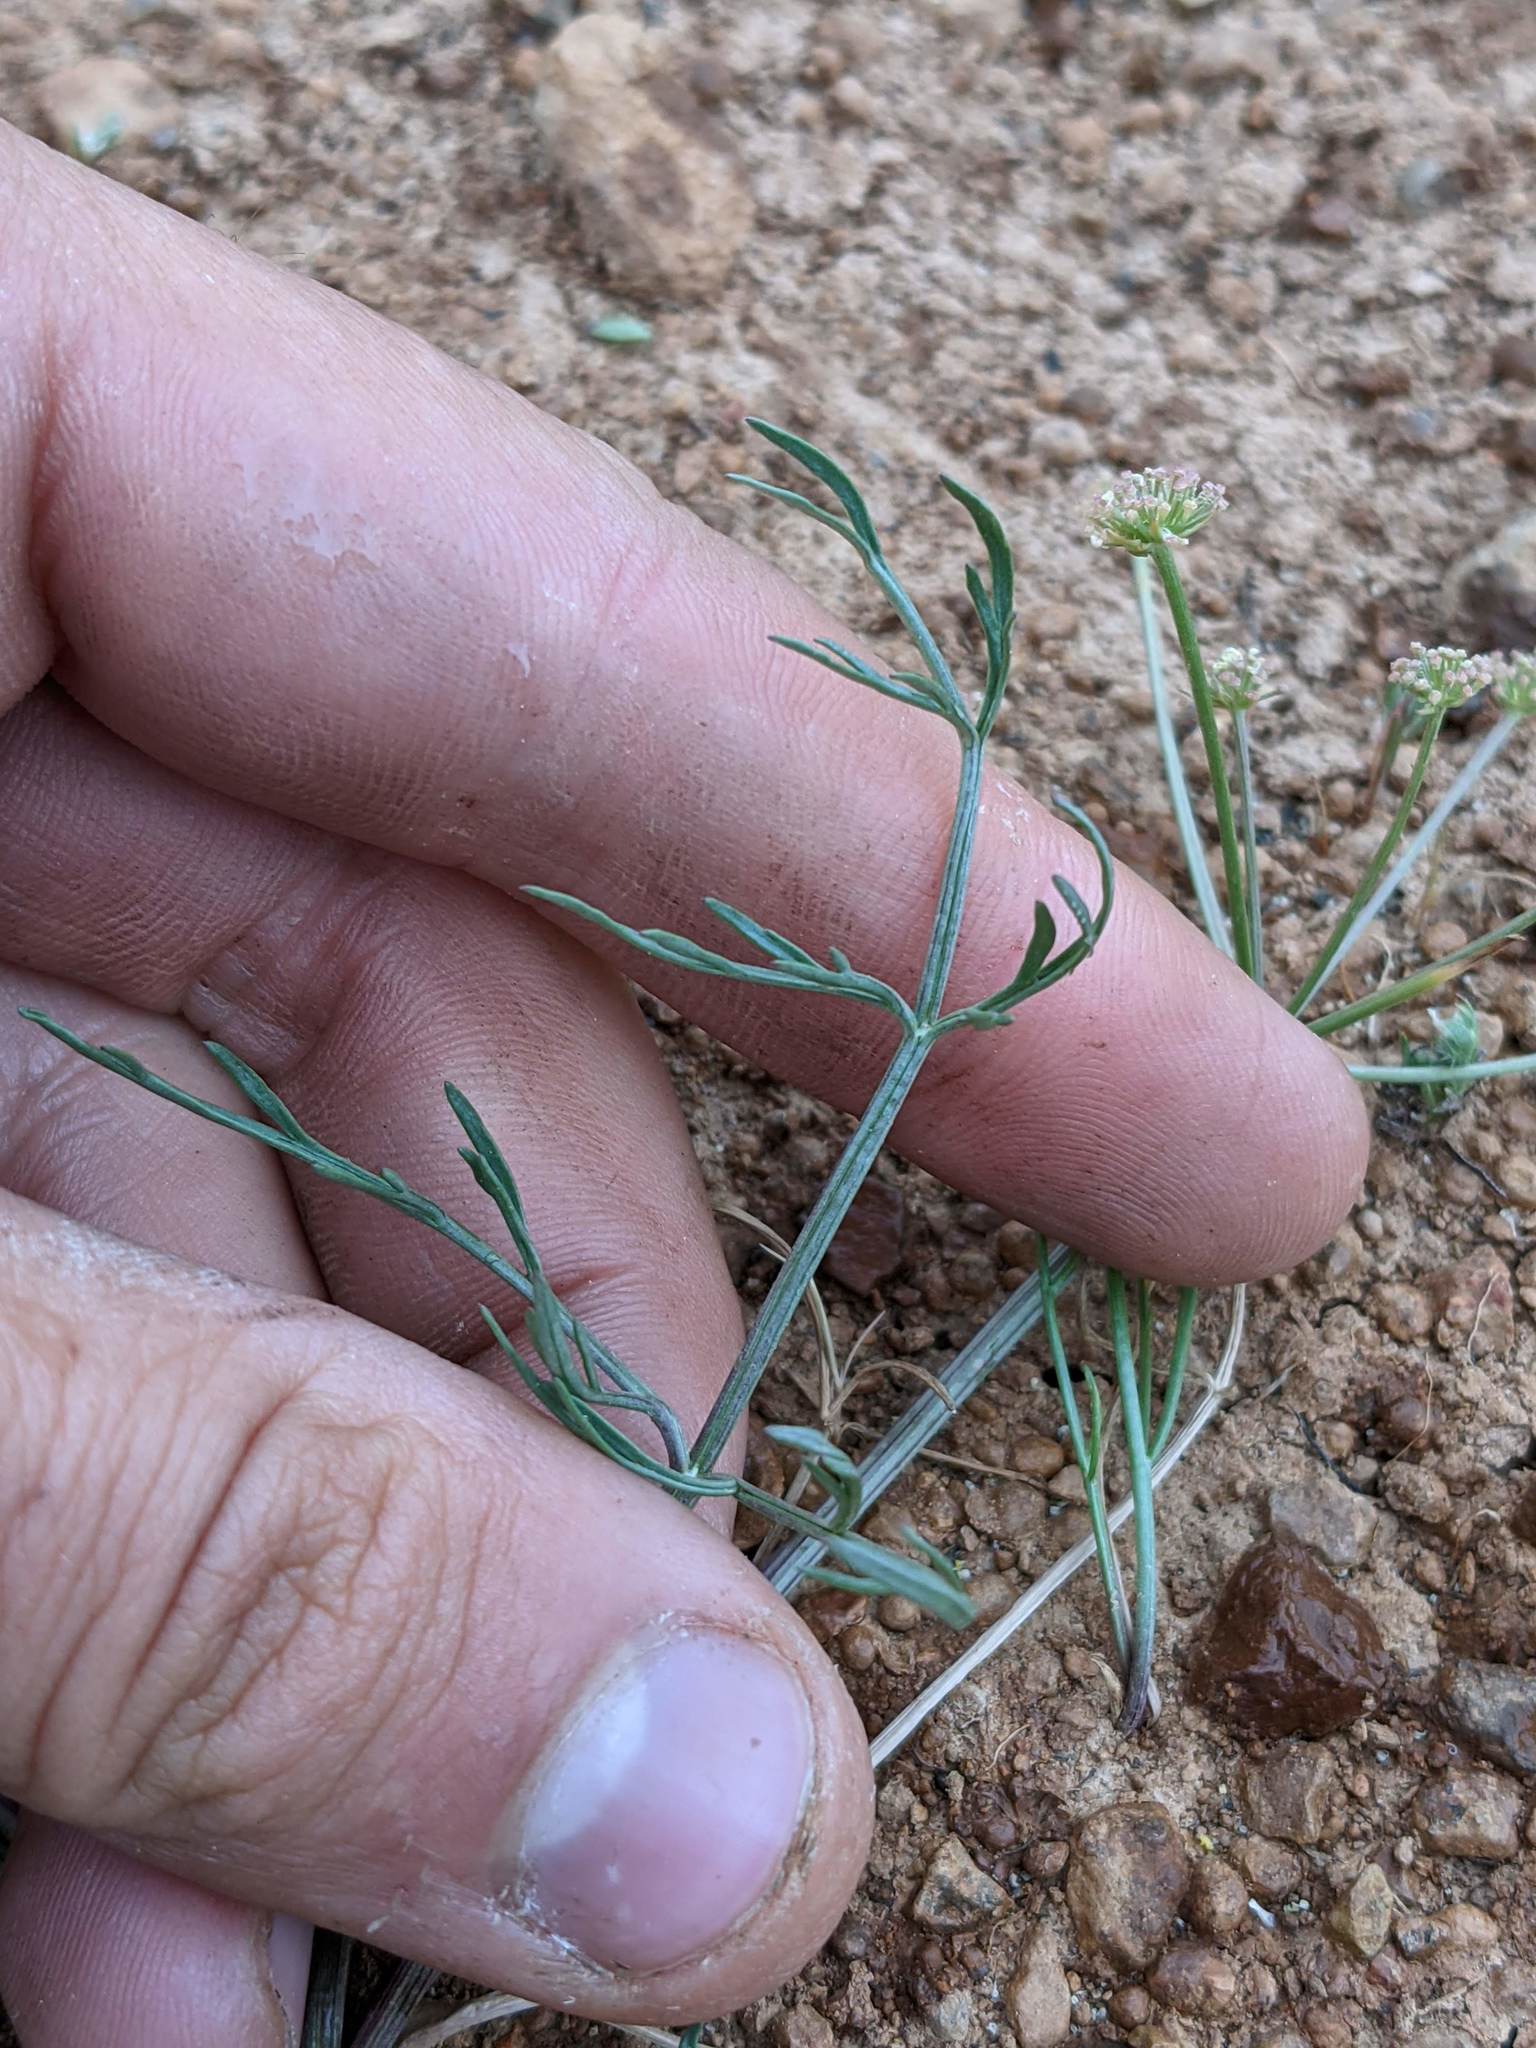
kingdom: Plantae
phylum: Tracheophyta
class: Magnoliopsida
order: Apiales
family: Apiaceae
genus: Lomatium
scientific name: Lomatium bicolor
